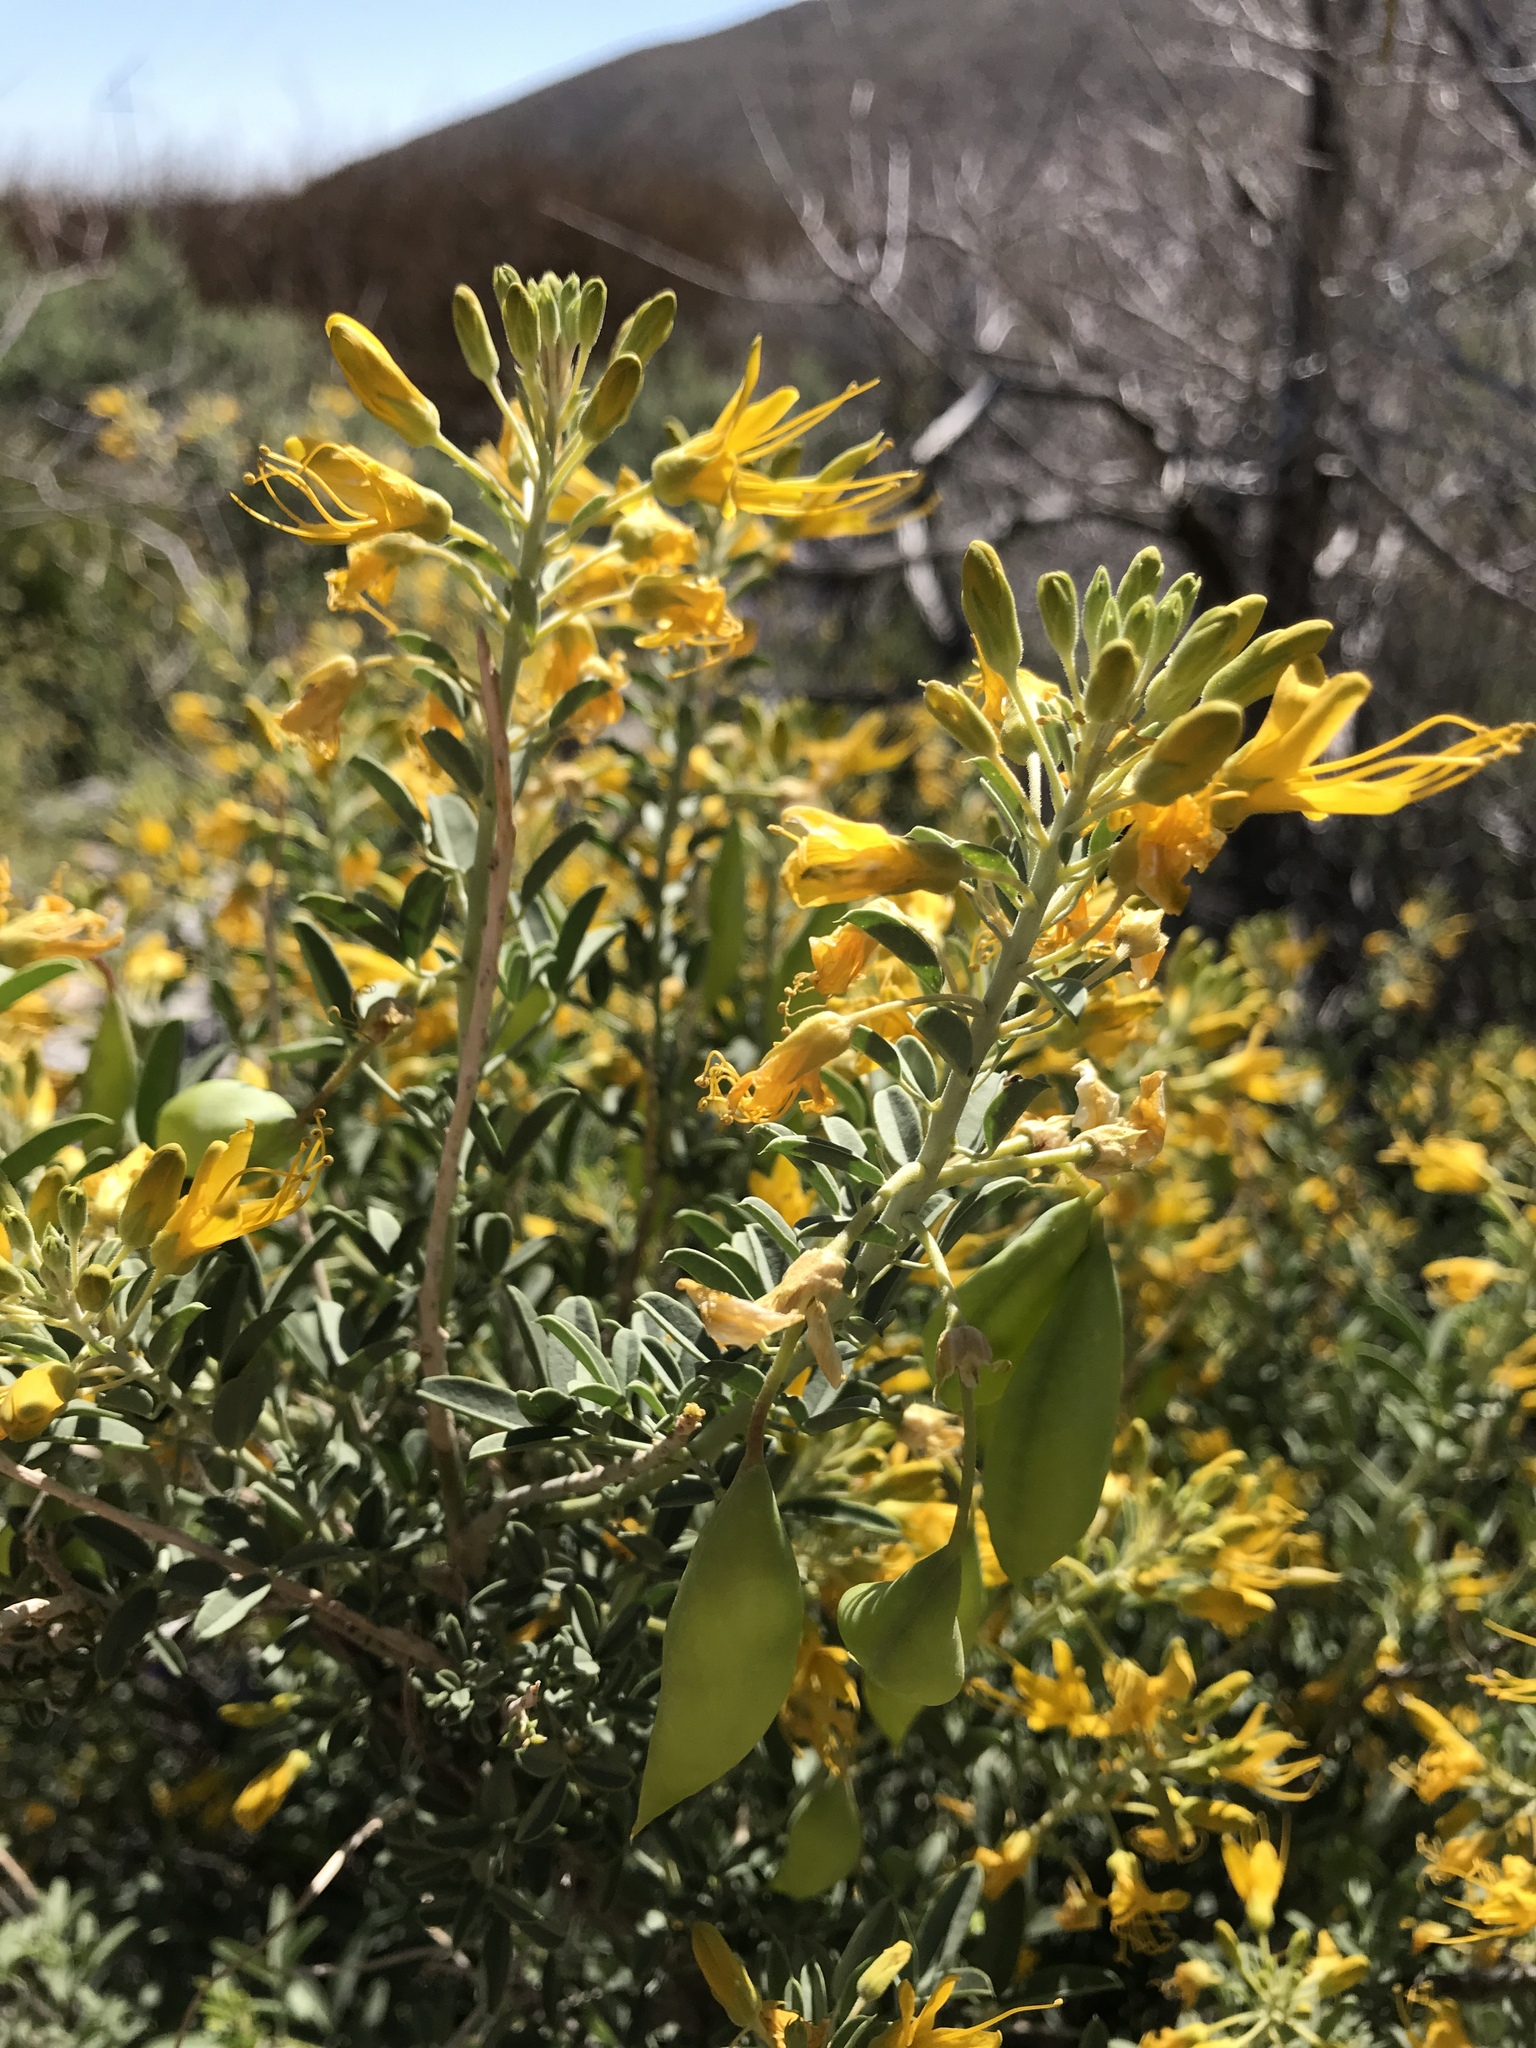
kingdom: Plantae
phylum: Tracheophyta
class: Magnoliopsida
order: Brassicales
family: Cleomaceae
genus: Cleomella
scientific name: Cleomella arborea
